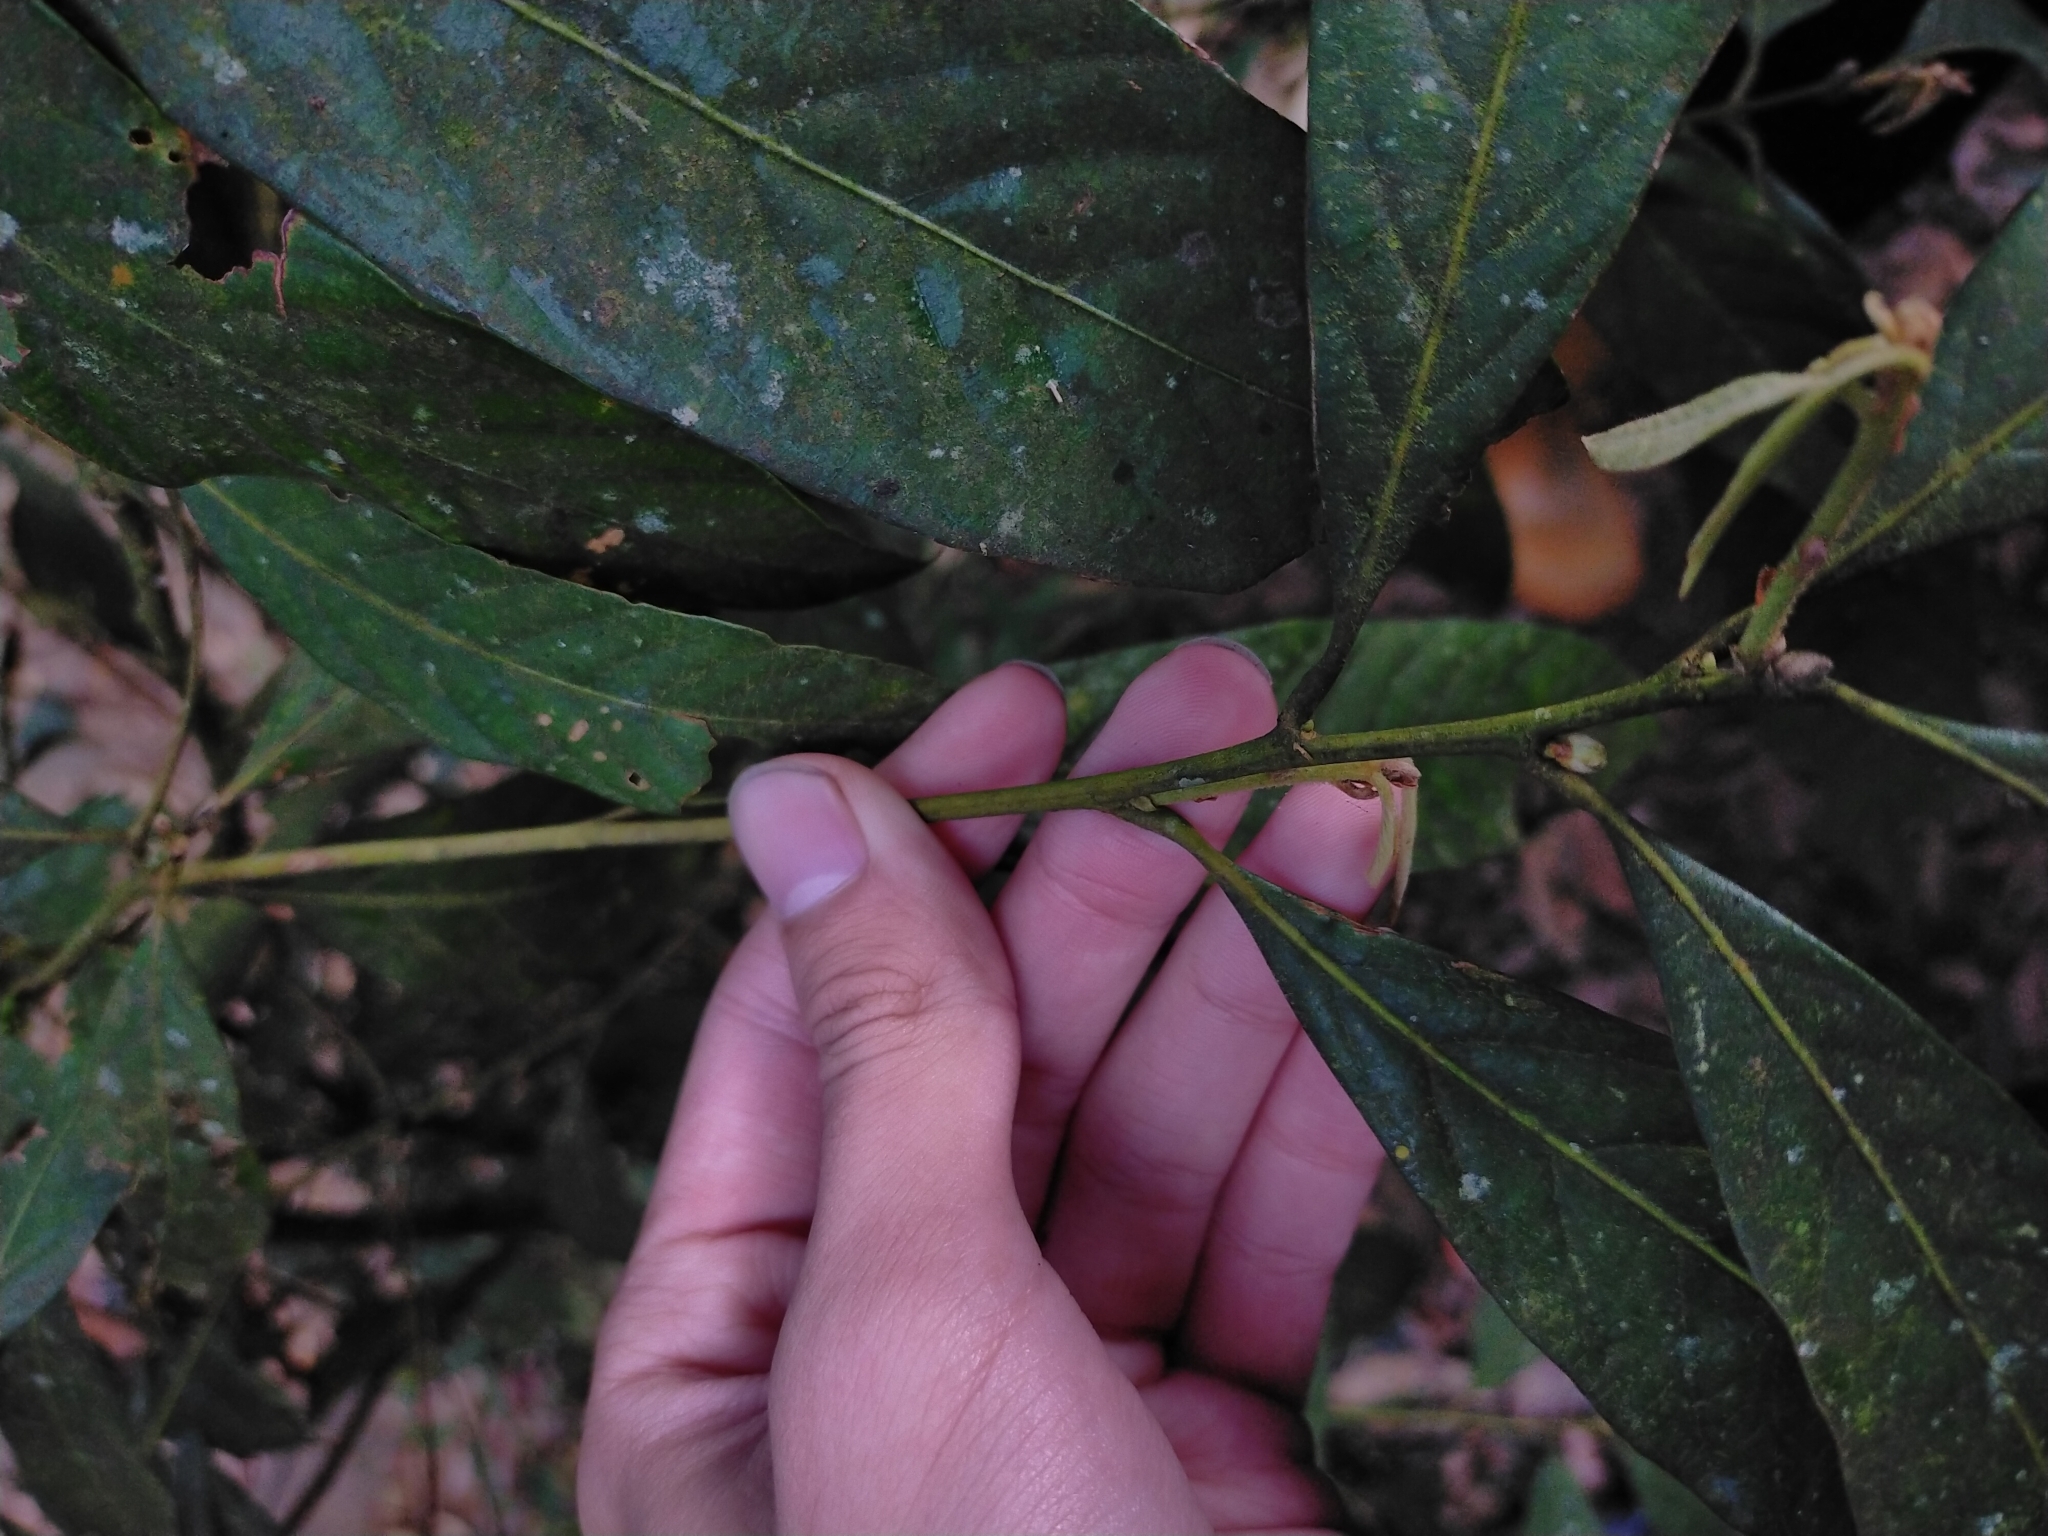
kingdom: Plantae
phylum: Tracheophyta
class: Magnoliopsida
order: Fagales
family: Fagaceae
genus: Lithocarpus
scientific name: Lithocarpus amygdalifolius
